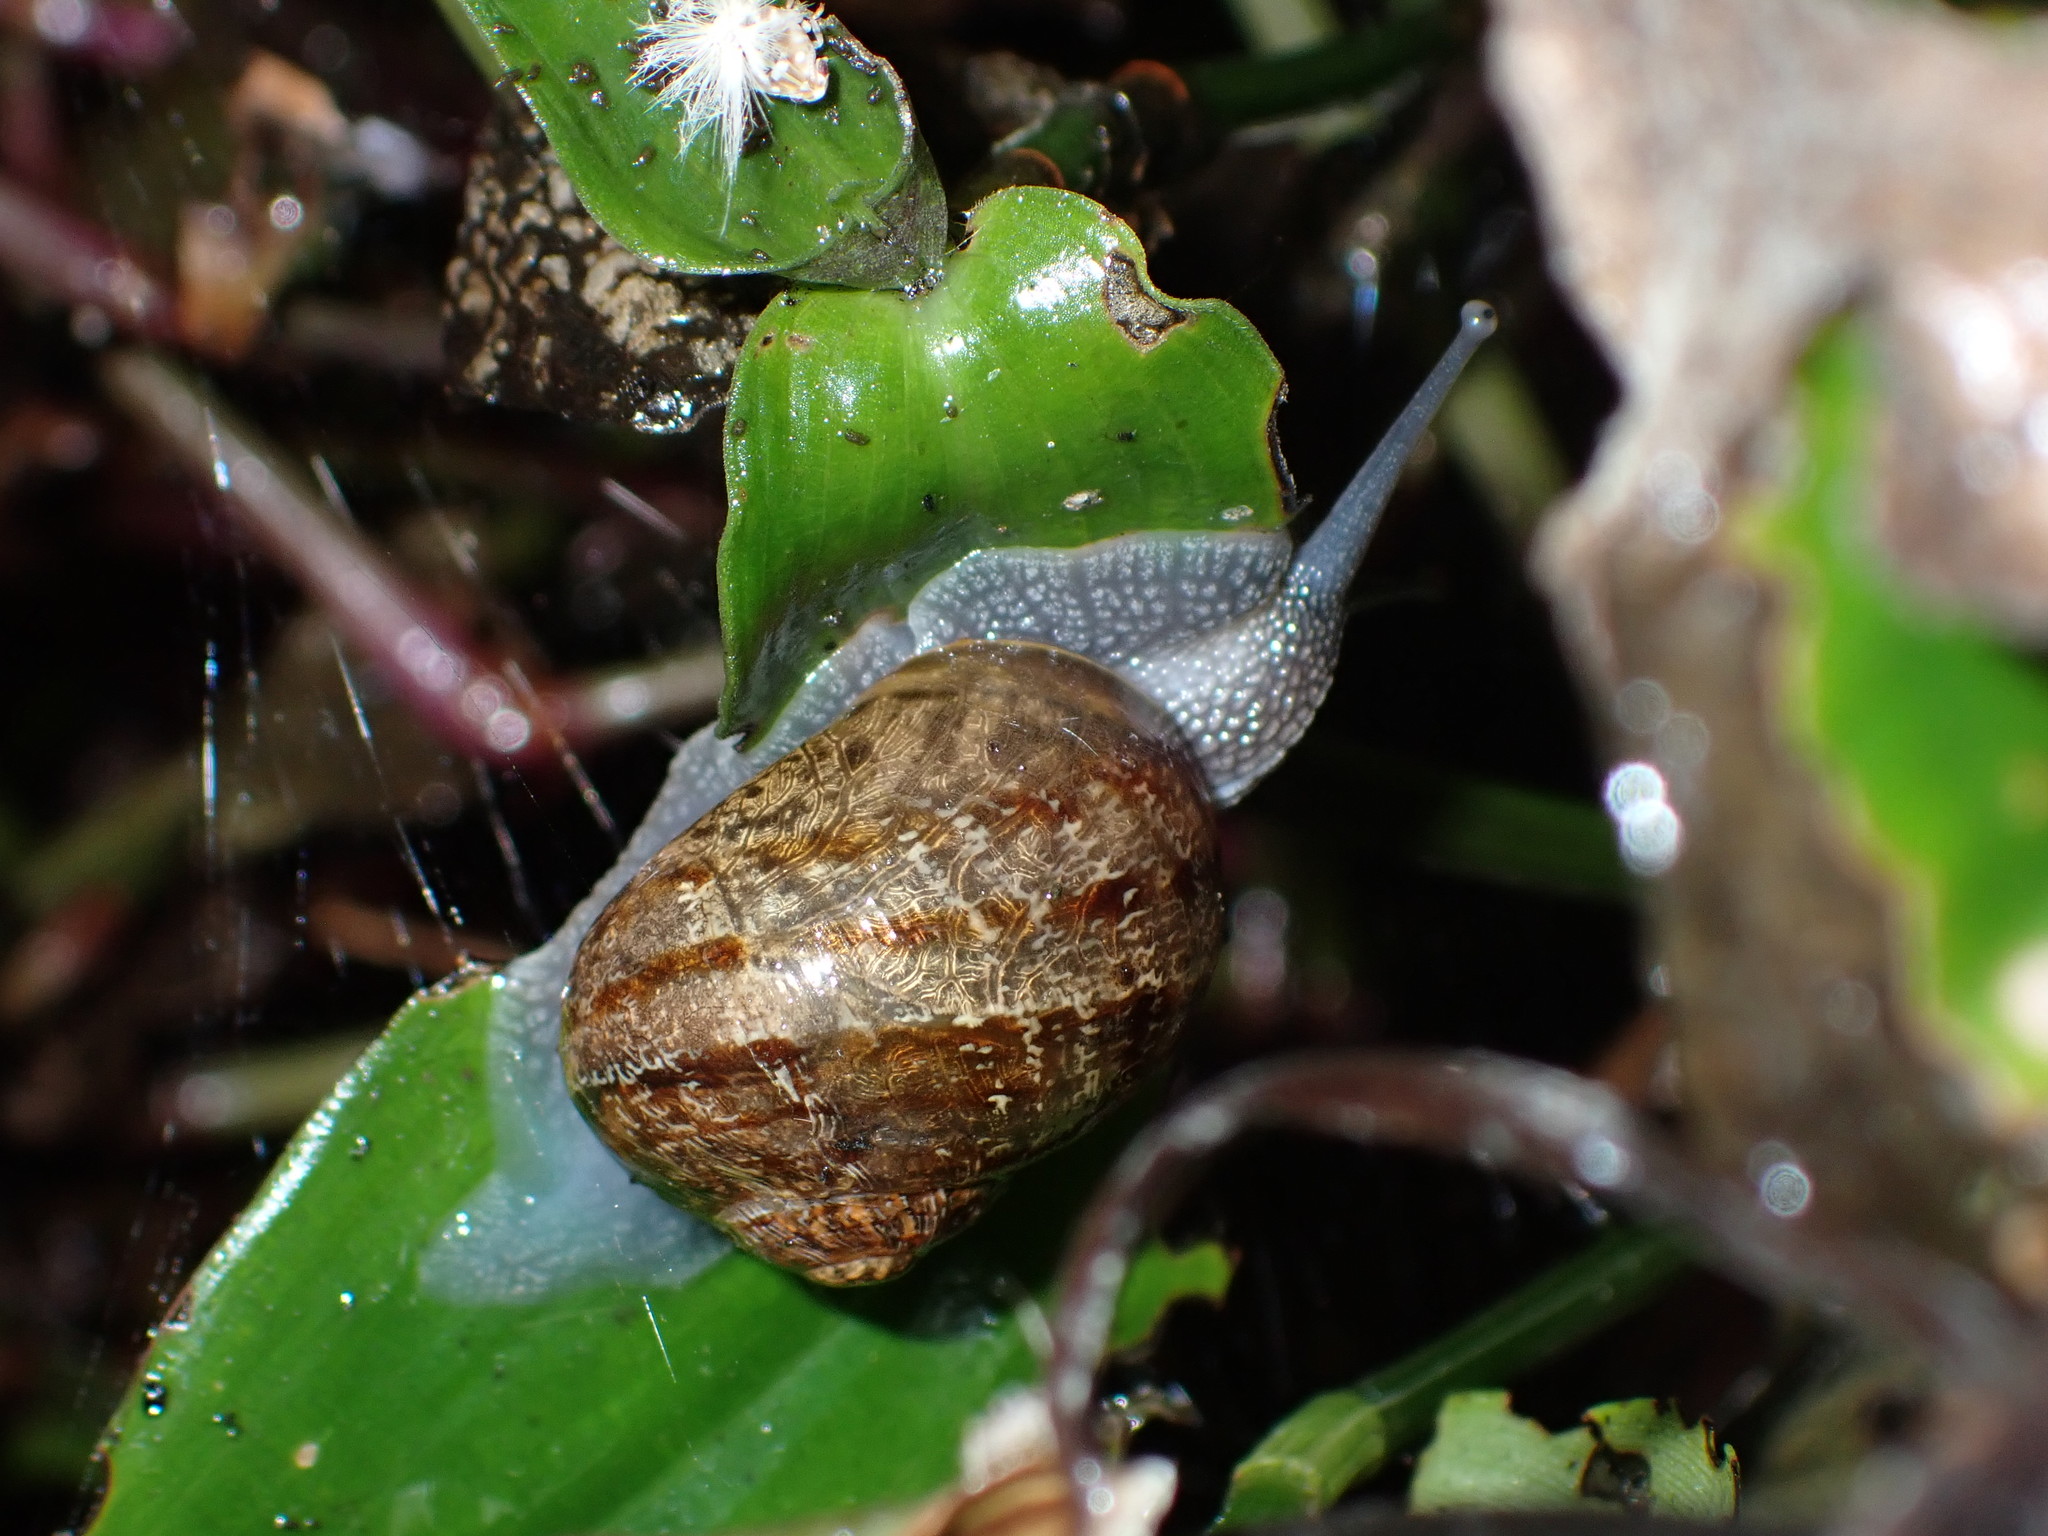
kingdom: Animalia
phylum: Mollusca
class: Gastropoda
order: Stylommatophora
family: Helicidae
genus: Cornu
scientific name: Cornu aspersum
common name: Brown garden snail
